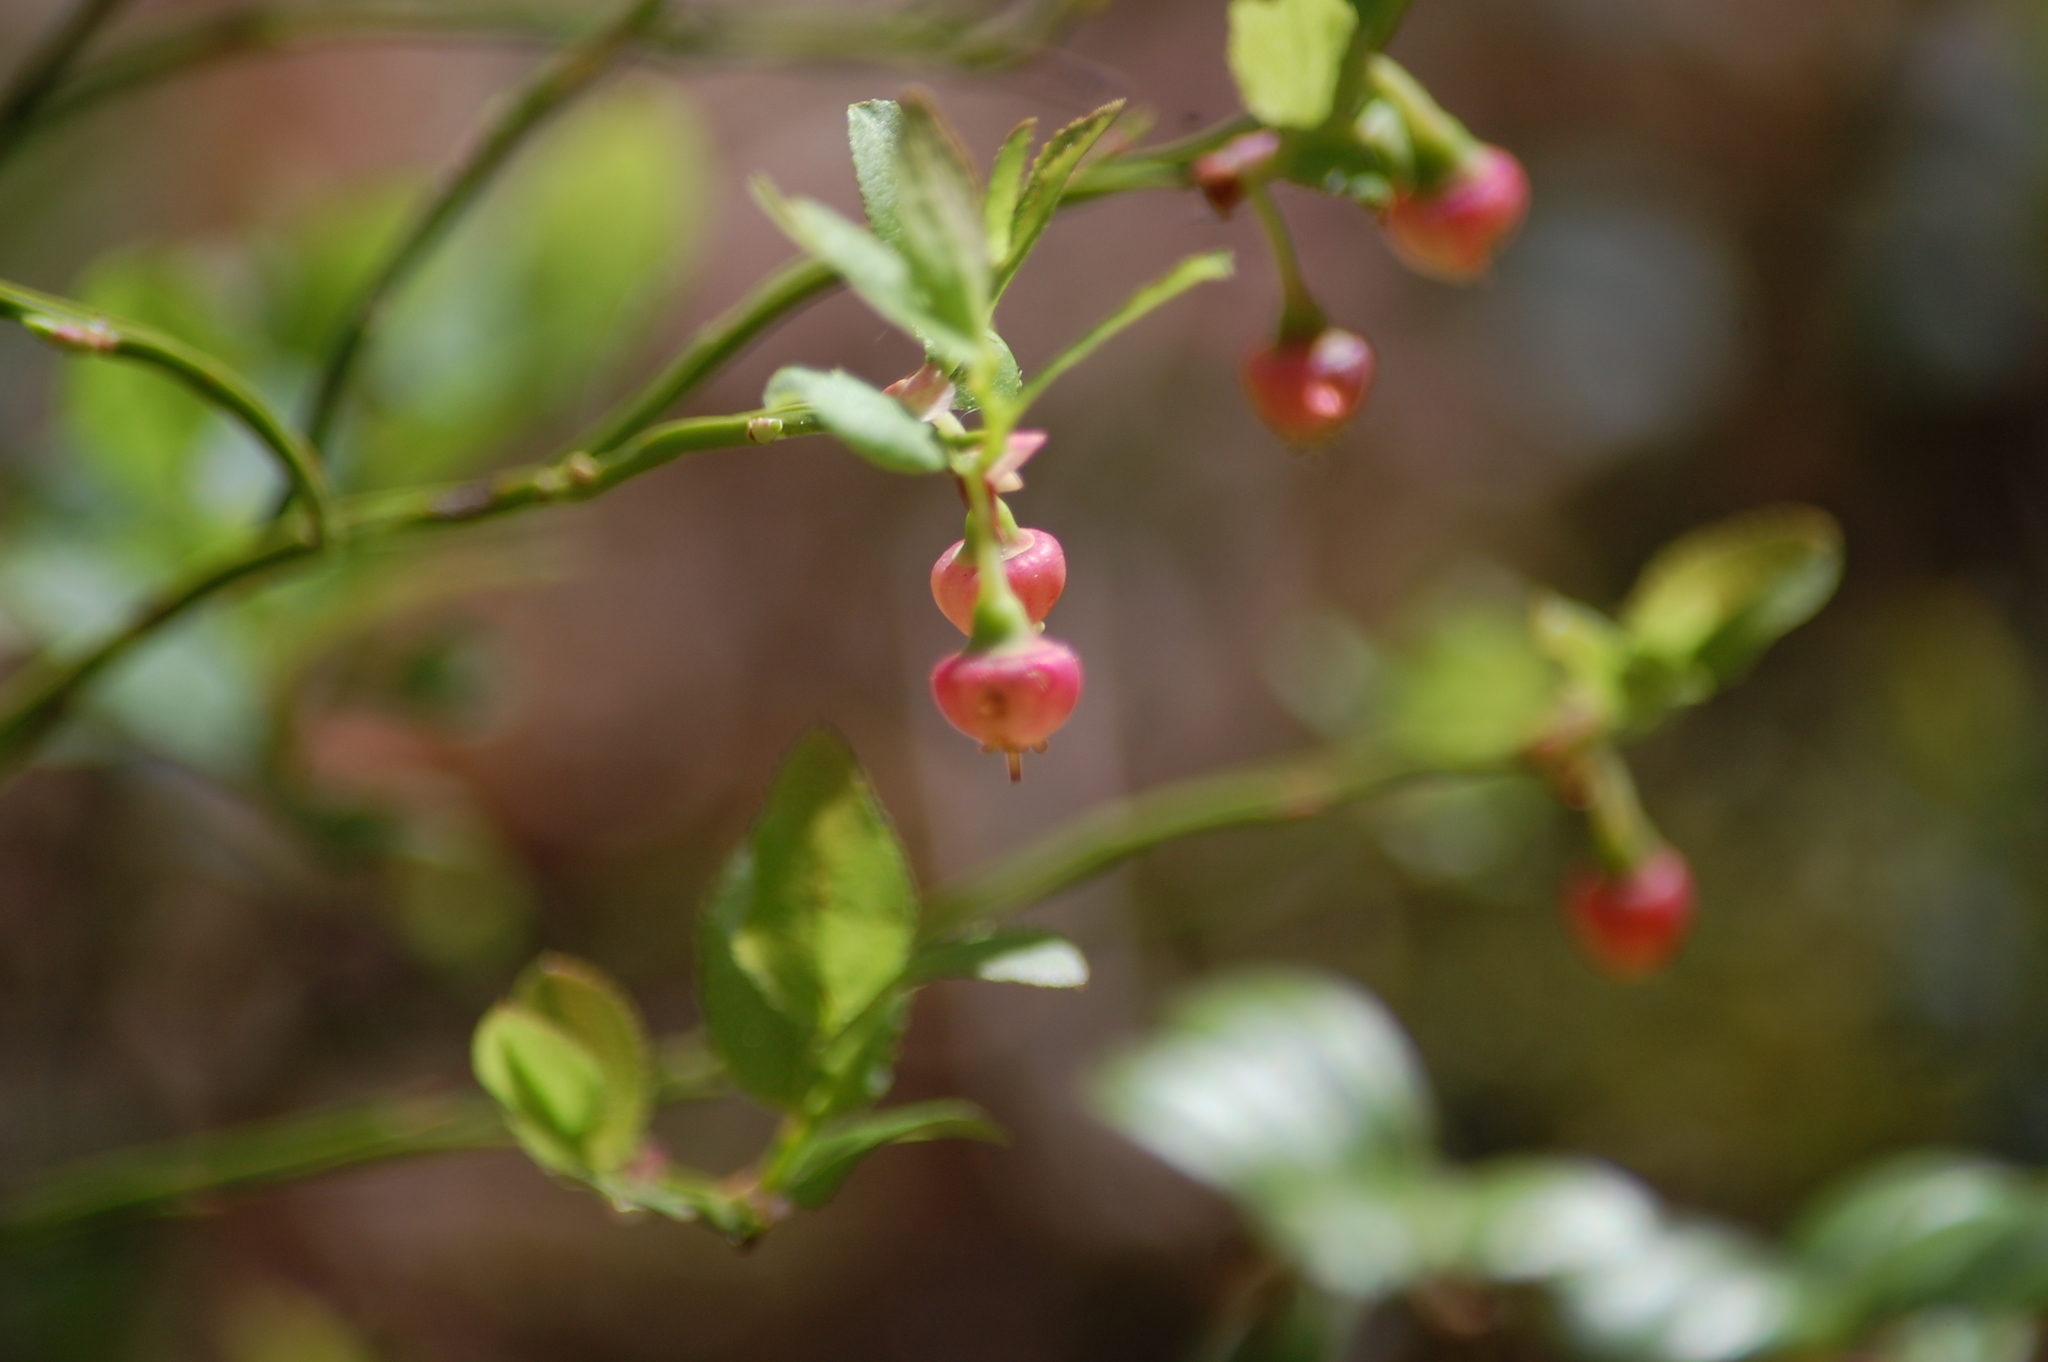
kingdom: Plantae
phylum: Tracheophyta
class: Magnoliopsida
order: Ericales
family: Ericaceae
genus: Vaccinium
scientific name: Vaccinium myrtillus
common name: Bilberry
